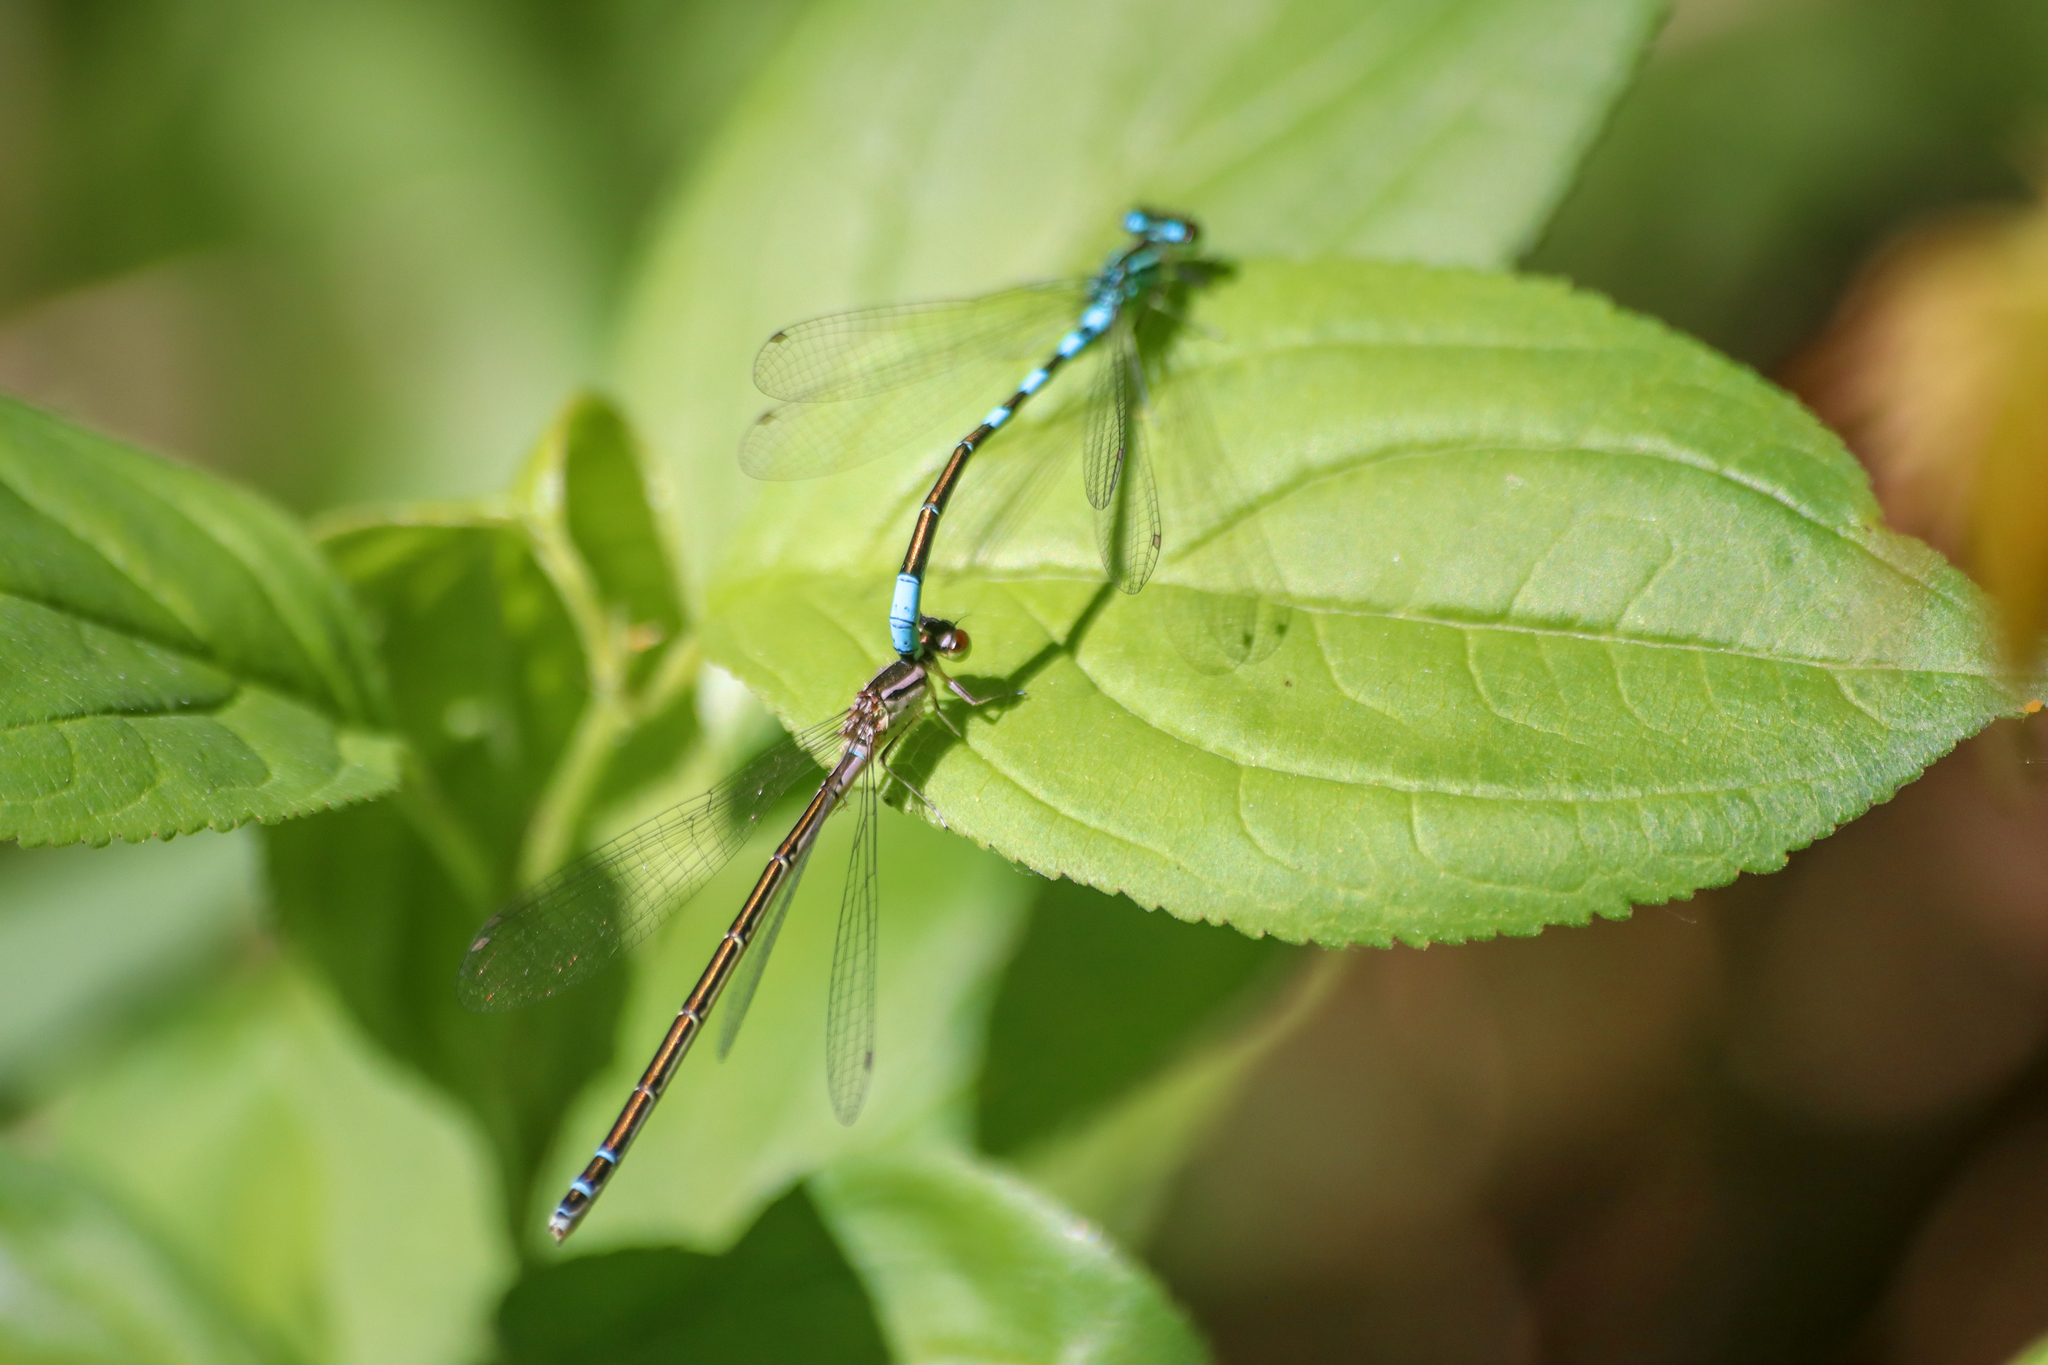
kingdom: Animalia
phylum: Arthropoda
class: Insecta
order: Odonata
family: Coenagrionidae
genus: Coenagrion
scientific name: Coenagrion resolutum
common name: Taiga bluet
